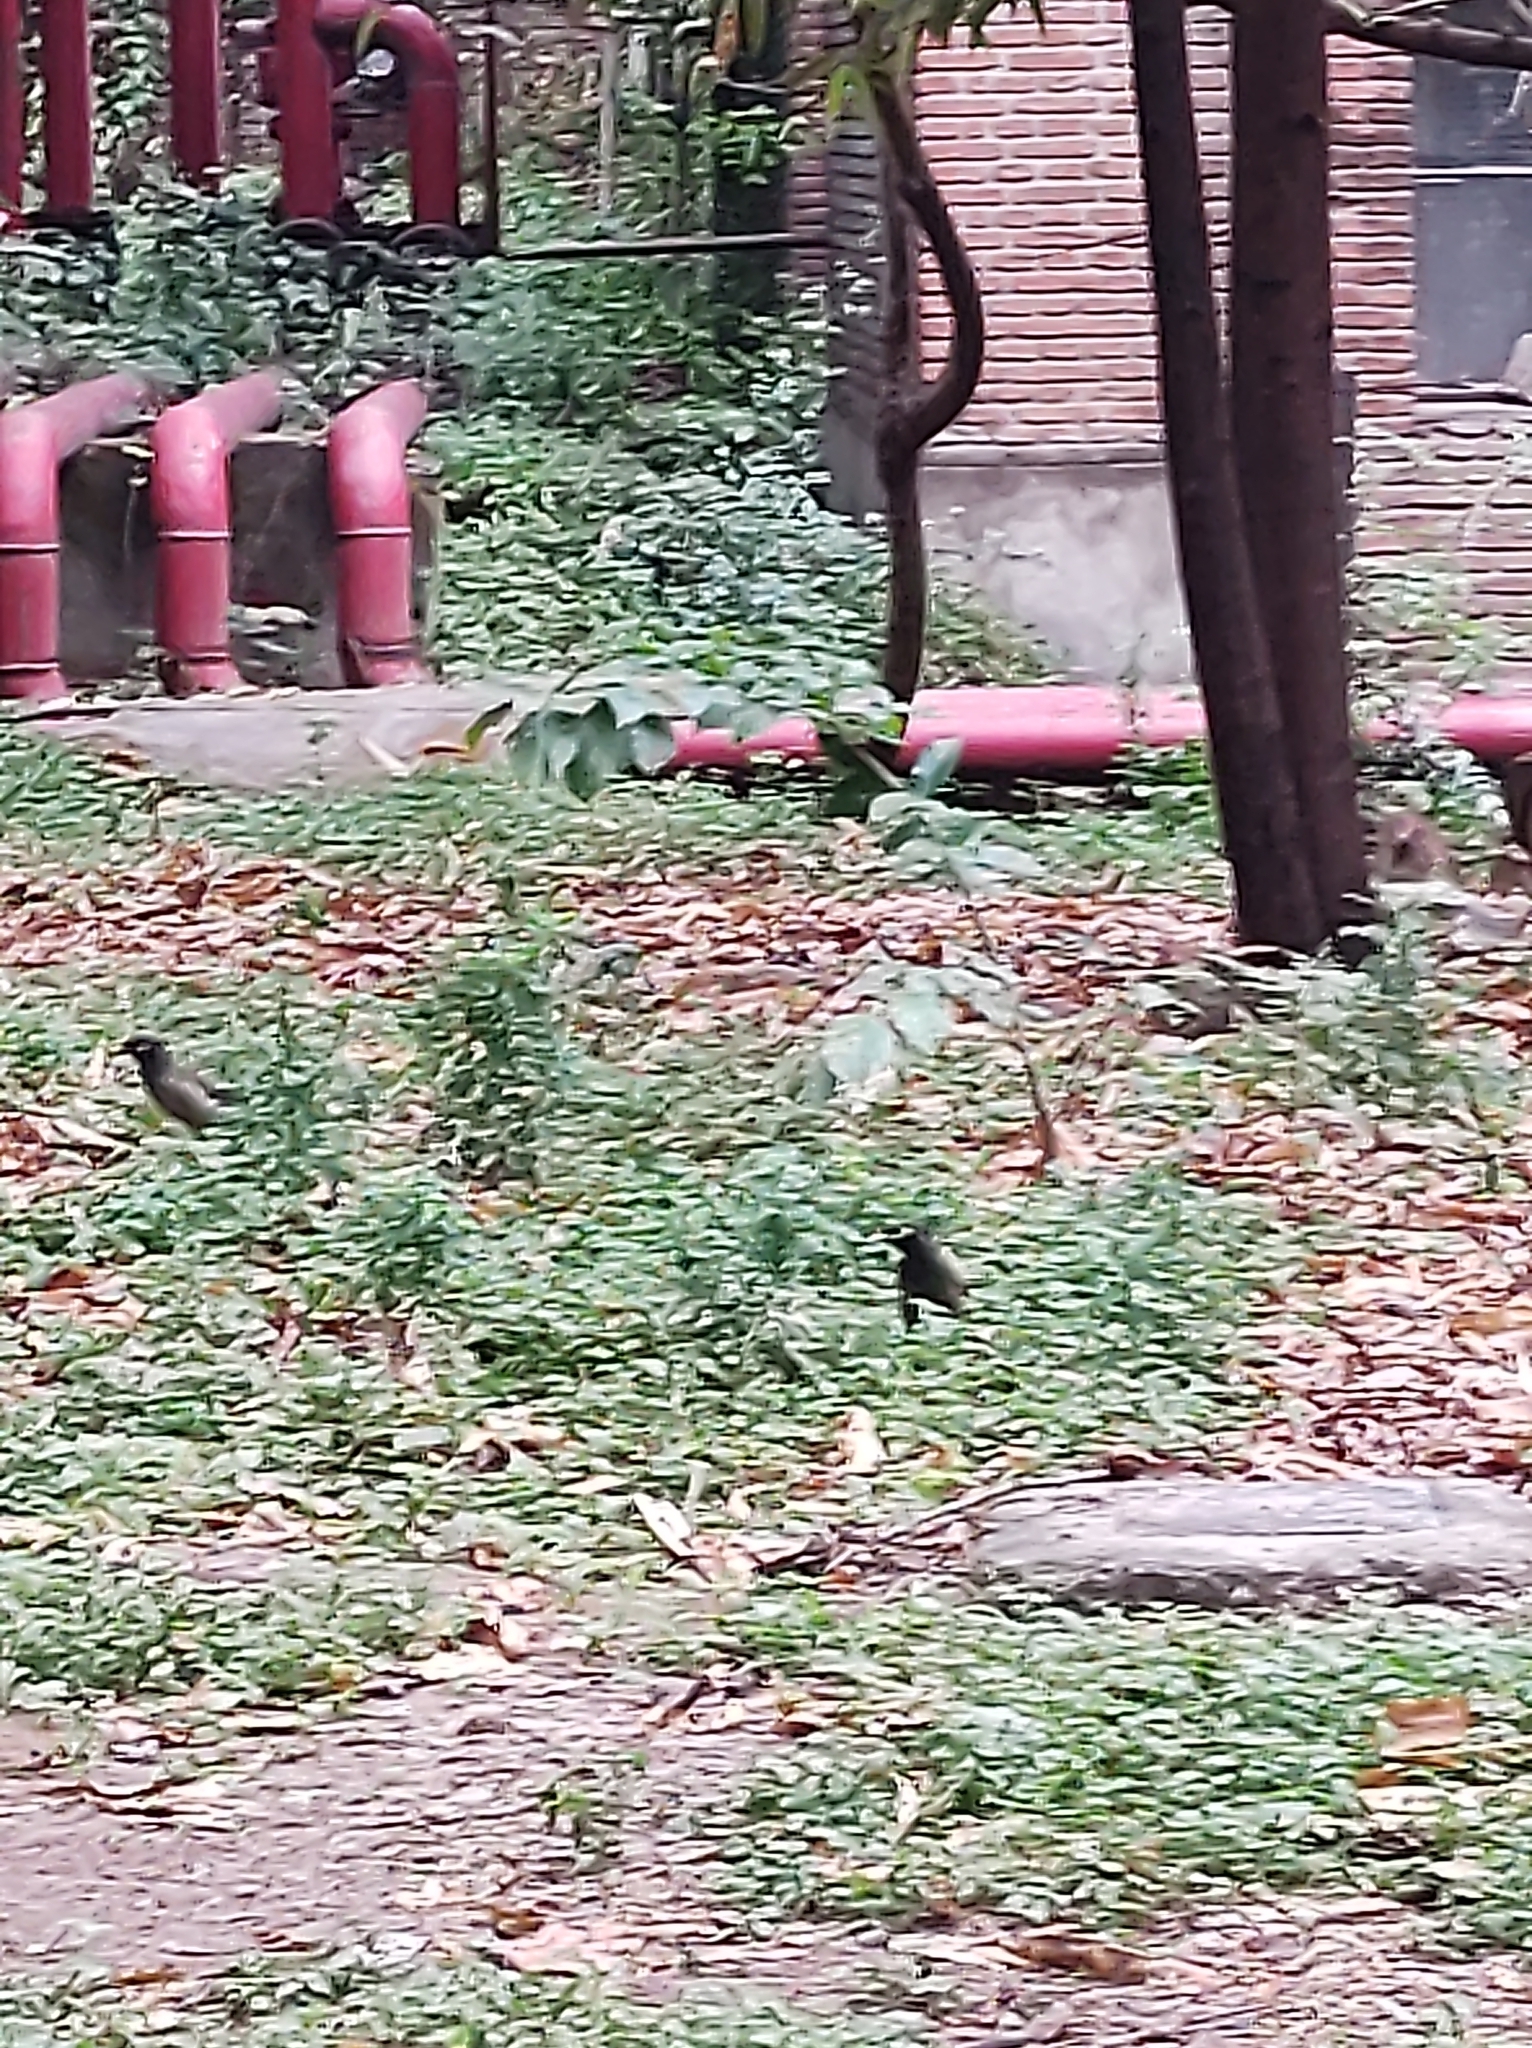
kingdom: Animalia
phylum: Chordata
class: Aves
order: Passeriformes
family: Sturnidae
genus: Acridotheres
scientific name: Acridotheres tristis
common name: Common myna
